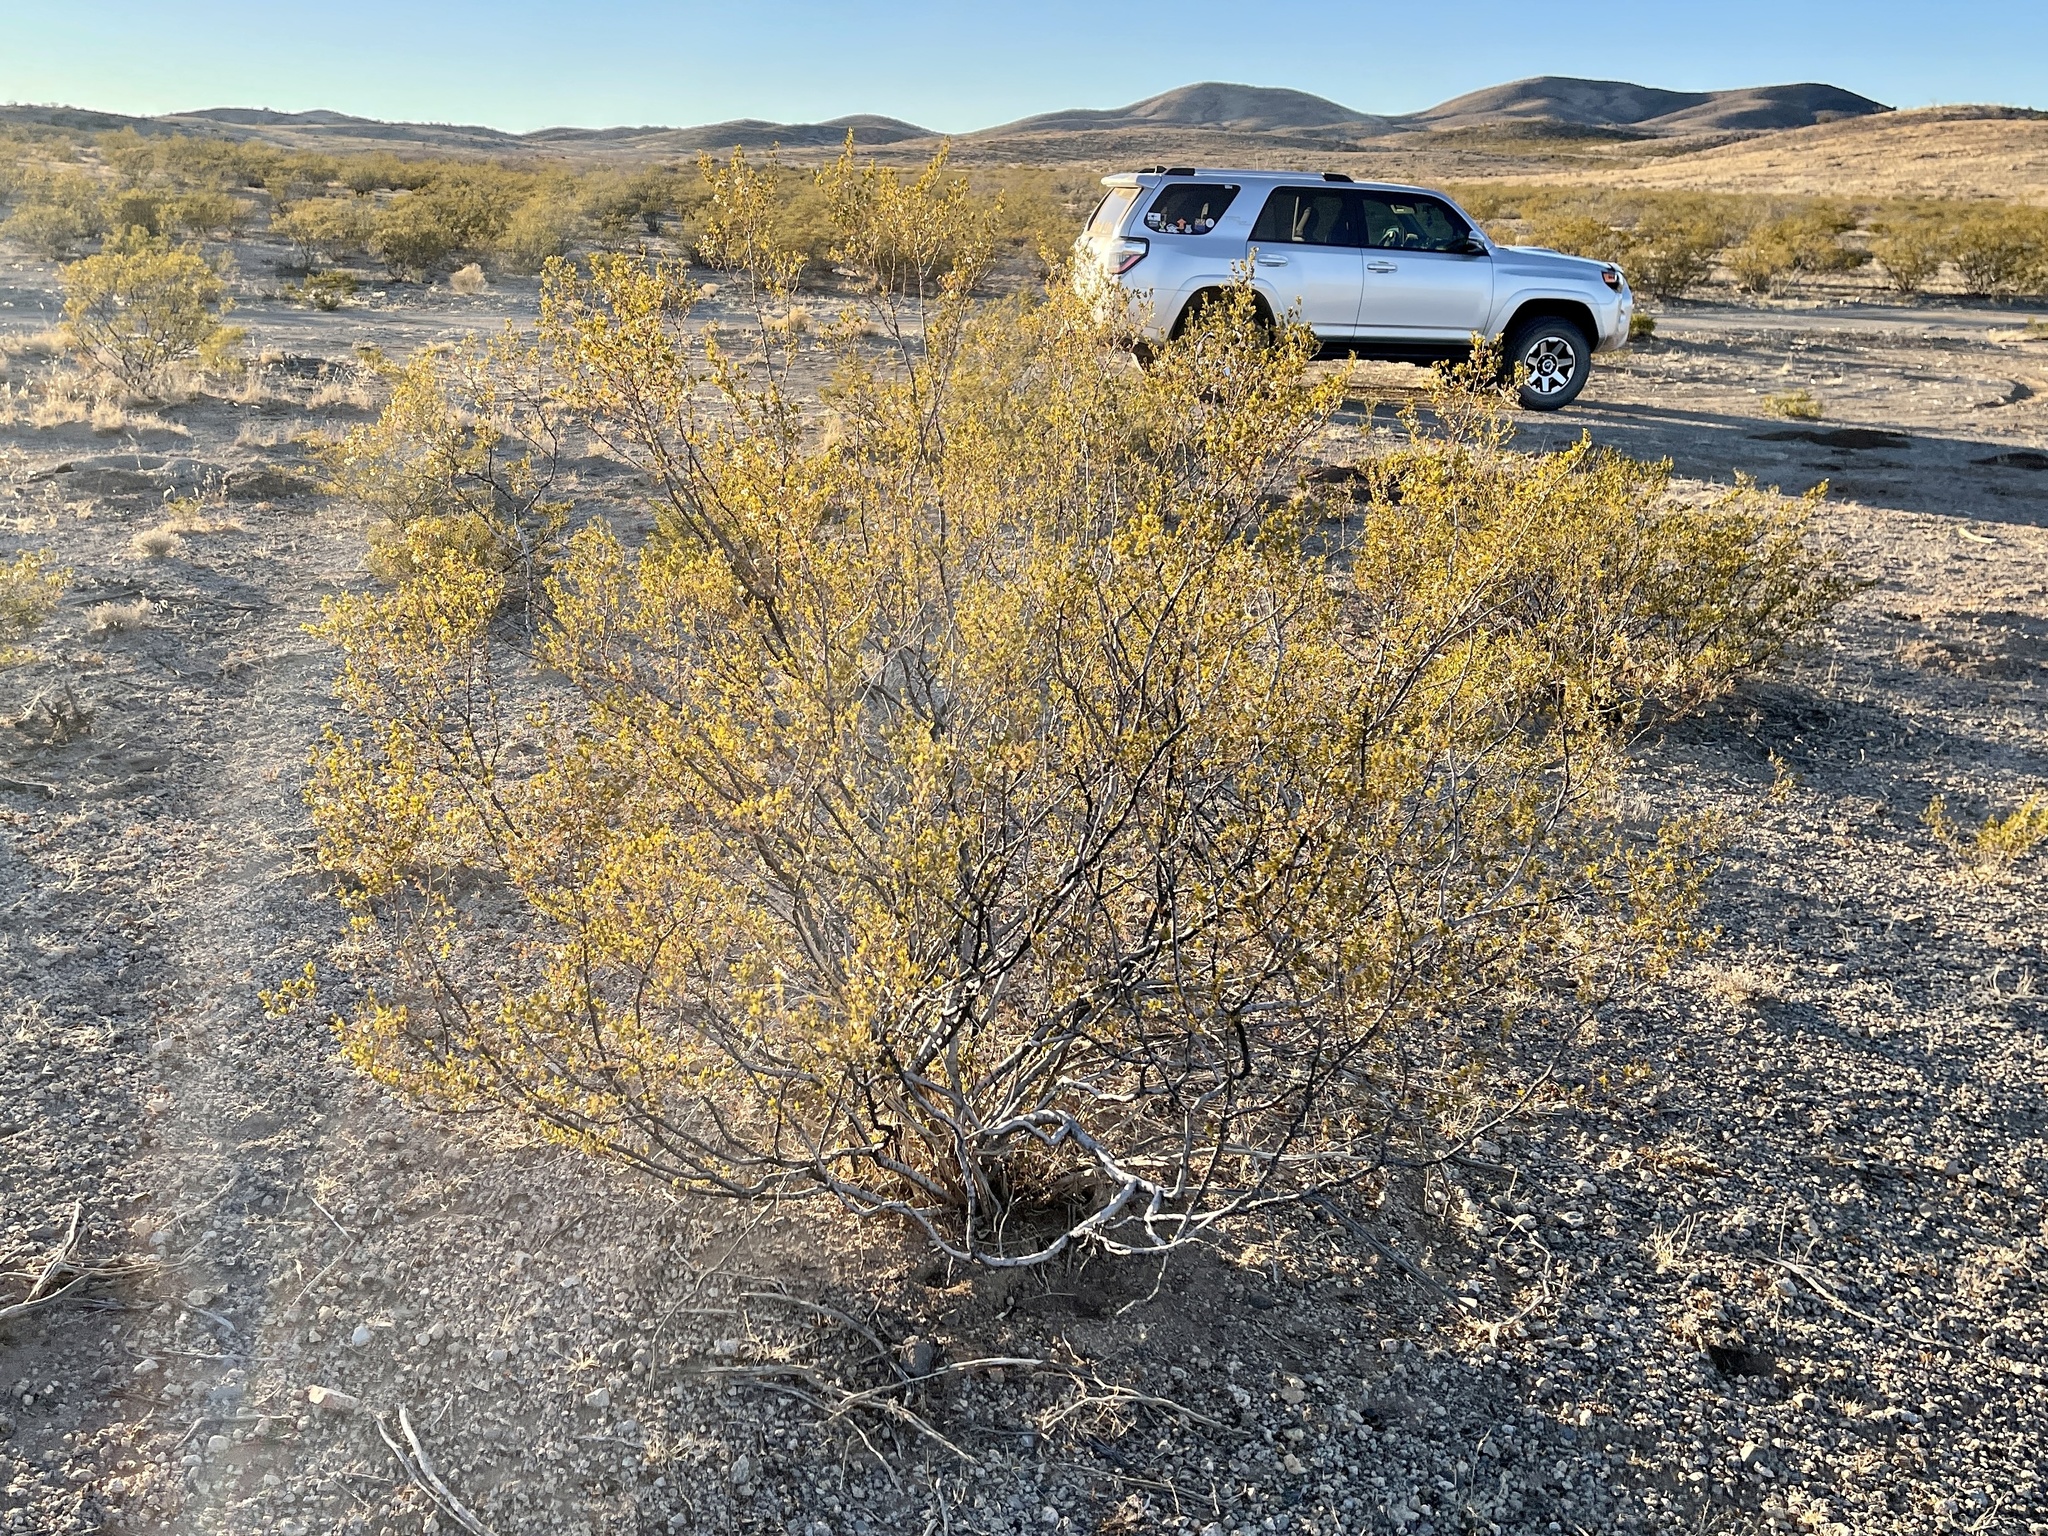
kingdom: Plantae
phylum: Tracheophyta
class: Magnoliopsida
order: Zygophyllales
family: Zygophyllaceae
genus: Larrea
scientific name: Larrea tridentata
